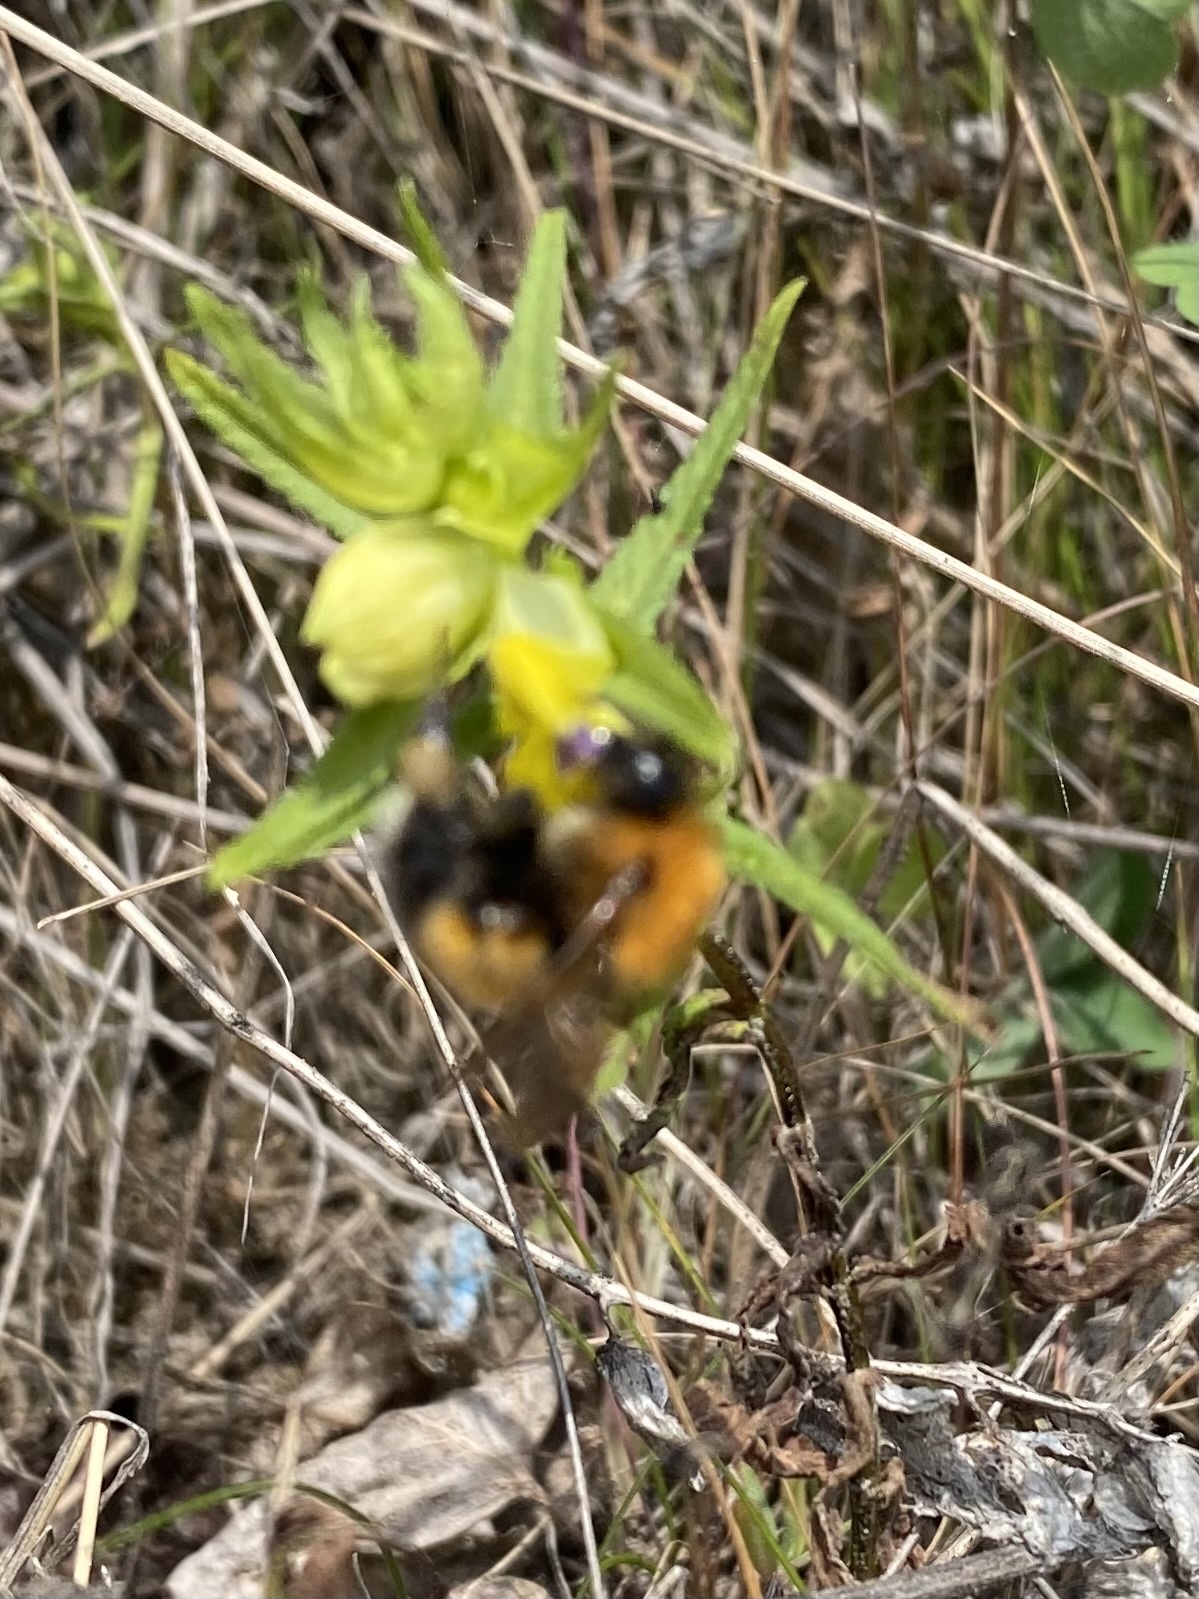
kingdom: Animalia
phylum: Arthropoda
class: Insecta
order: Hymenoptera
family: Apidae
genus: Bombus
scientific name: Bombus hypnorum
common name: New garden bumblebee
